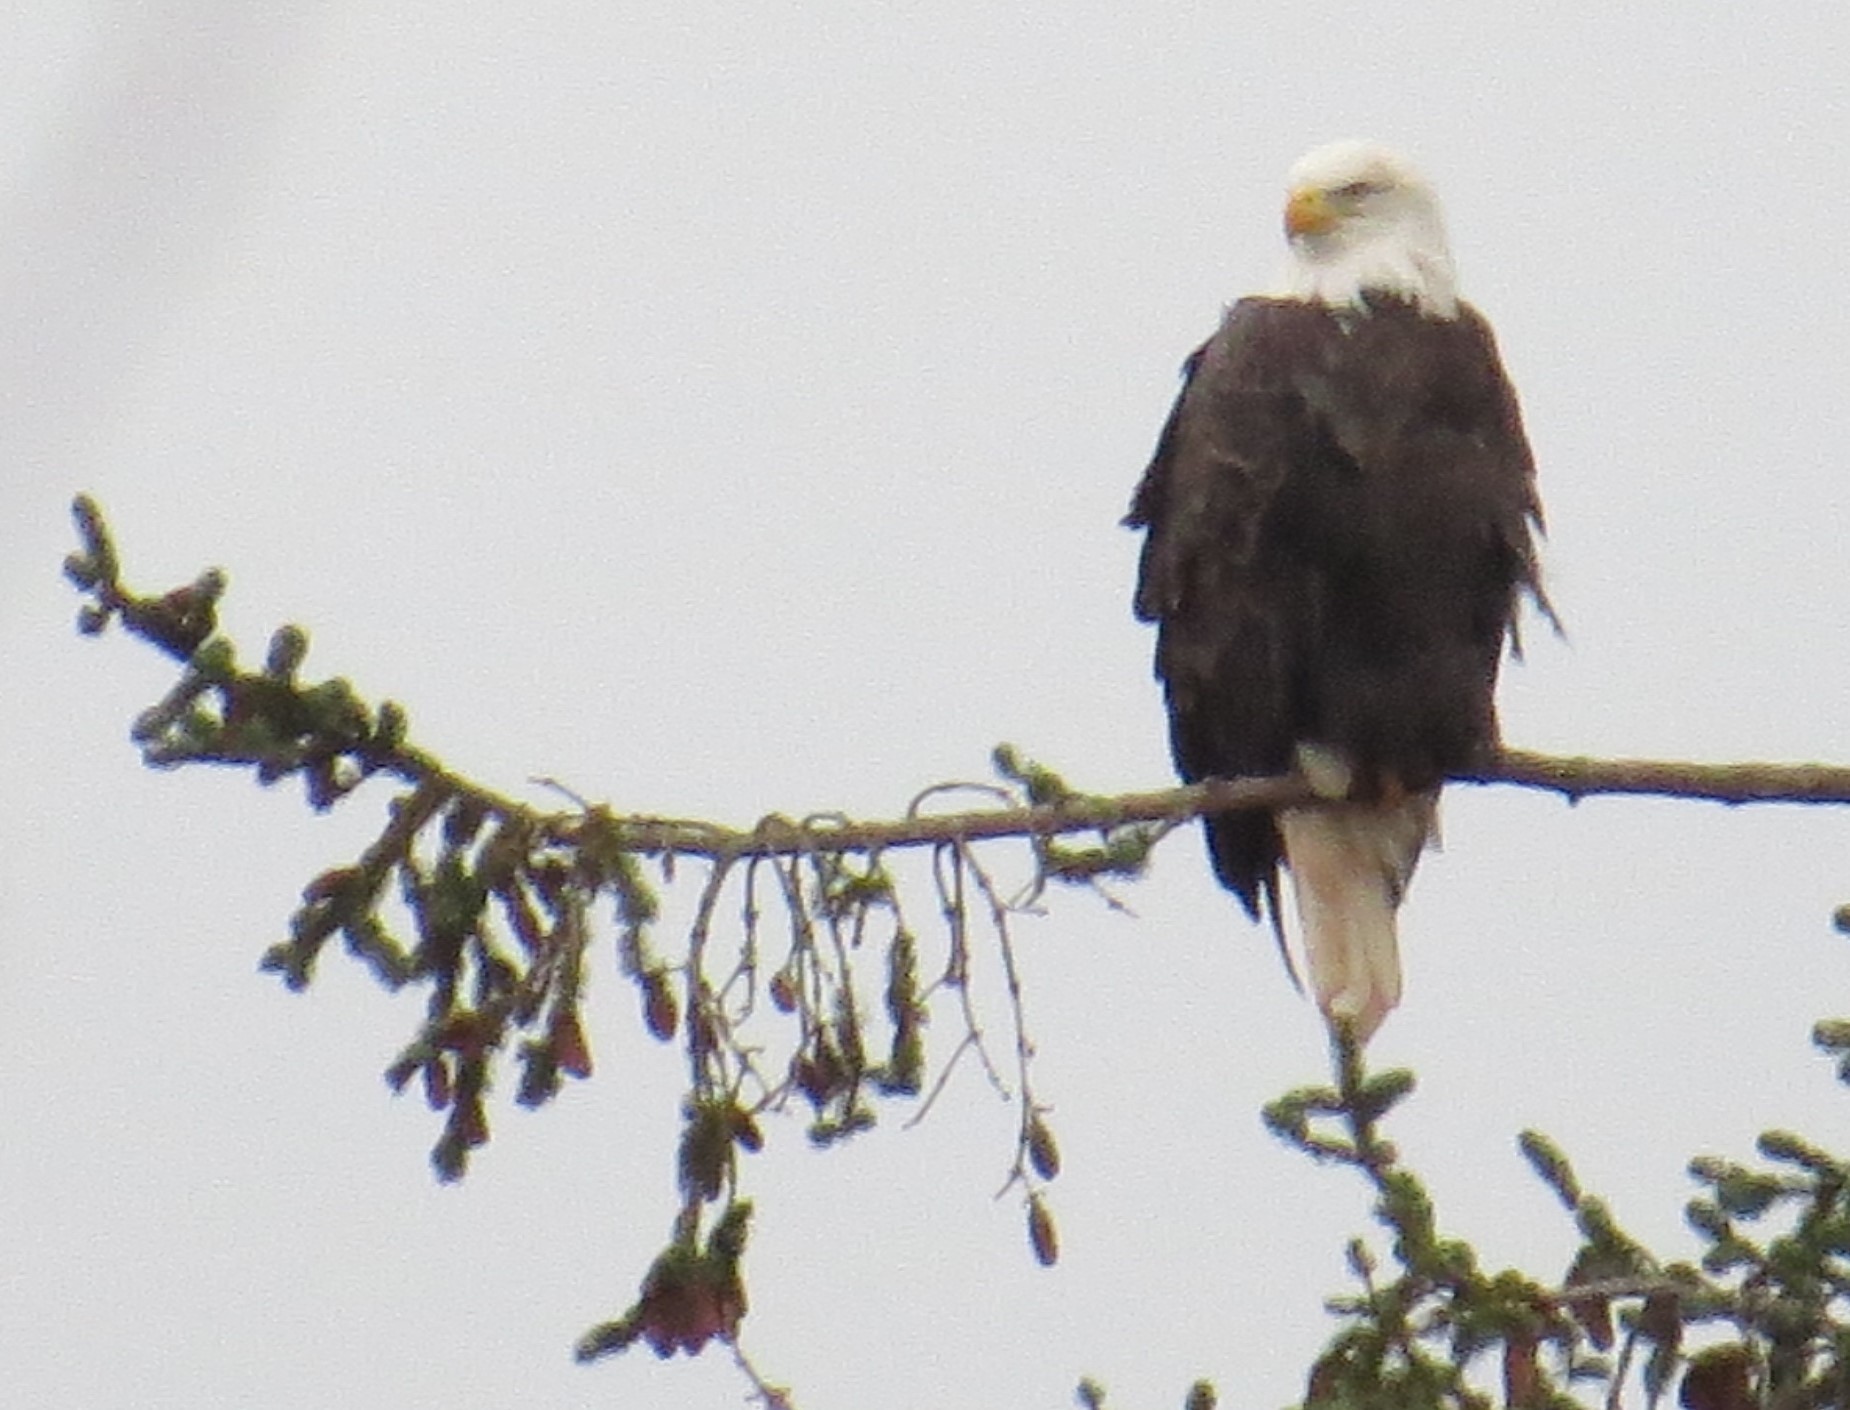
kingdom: Animalia
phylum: Chordata
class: Aves
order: Accipitriformes
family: Accipitridae
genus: Haliaeetus
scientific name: Haliaeetus leucocephalus
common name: Bald eagle
